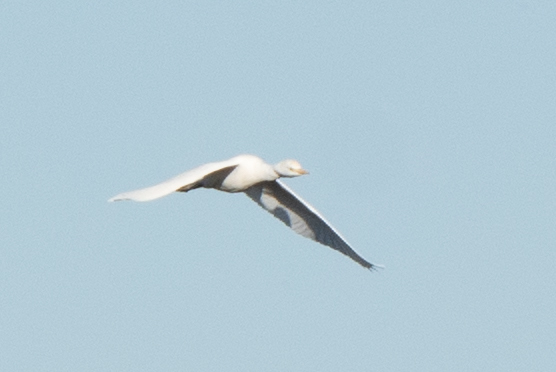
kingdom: Animalia
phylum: Chordata
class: Aves
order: Pelecaniformes
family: Ardeidae
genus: Bubulcus
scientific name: Bubulcus ibis
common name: Cattle egret
